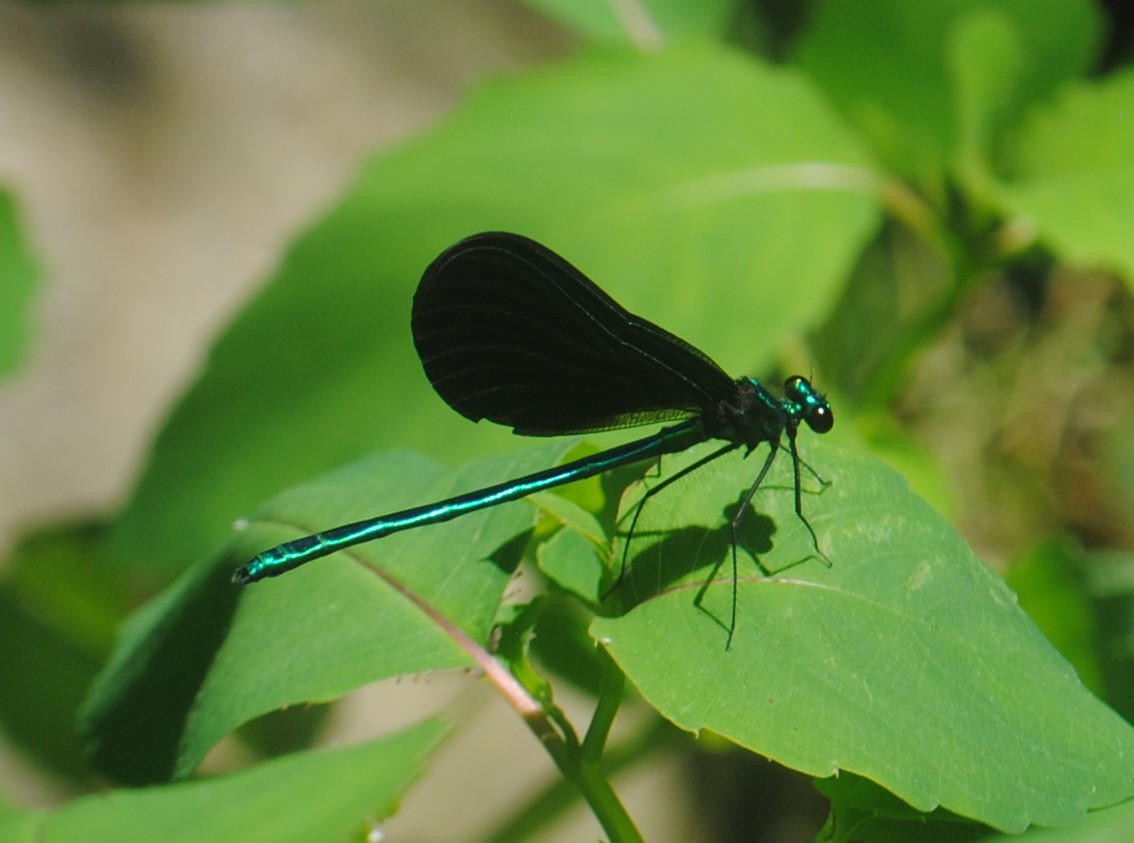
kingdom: Animalia
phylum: Arthropoda
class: Insecta
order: Odonata
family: Calopterygidae
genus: Calopteryx
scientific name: Calopteryx maculata
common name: Ebony jewelwing
